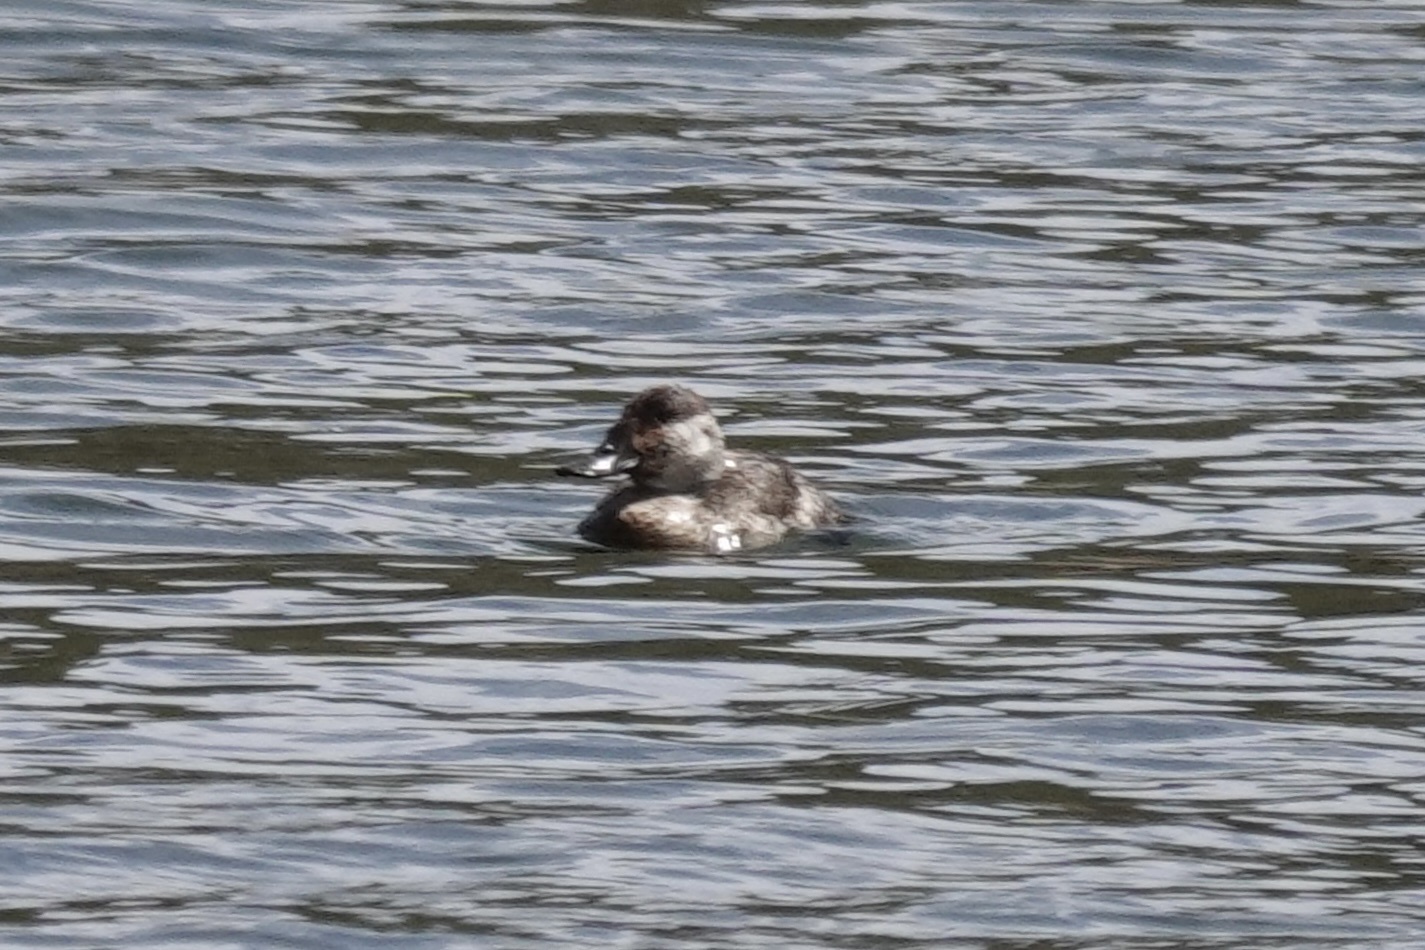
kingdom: Animalia
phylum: Chordata
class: Aves
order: Anseriformes
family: Anatidae
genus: Oxyura
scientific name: Oxyura jamaicensis
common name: Ruddy duck
